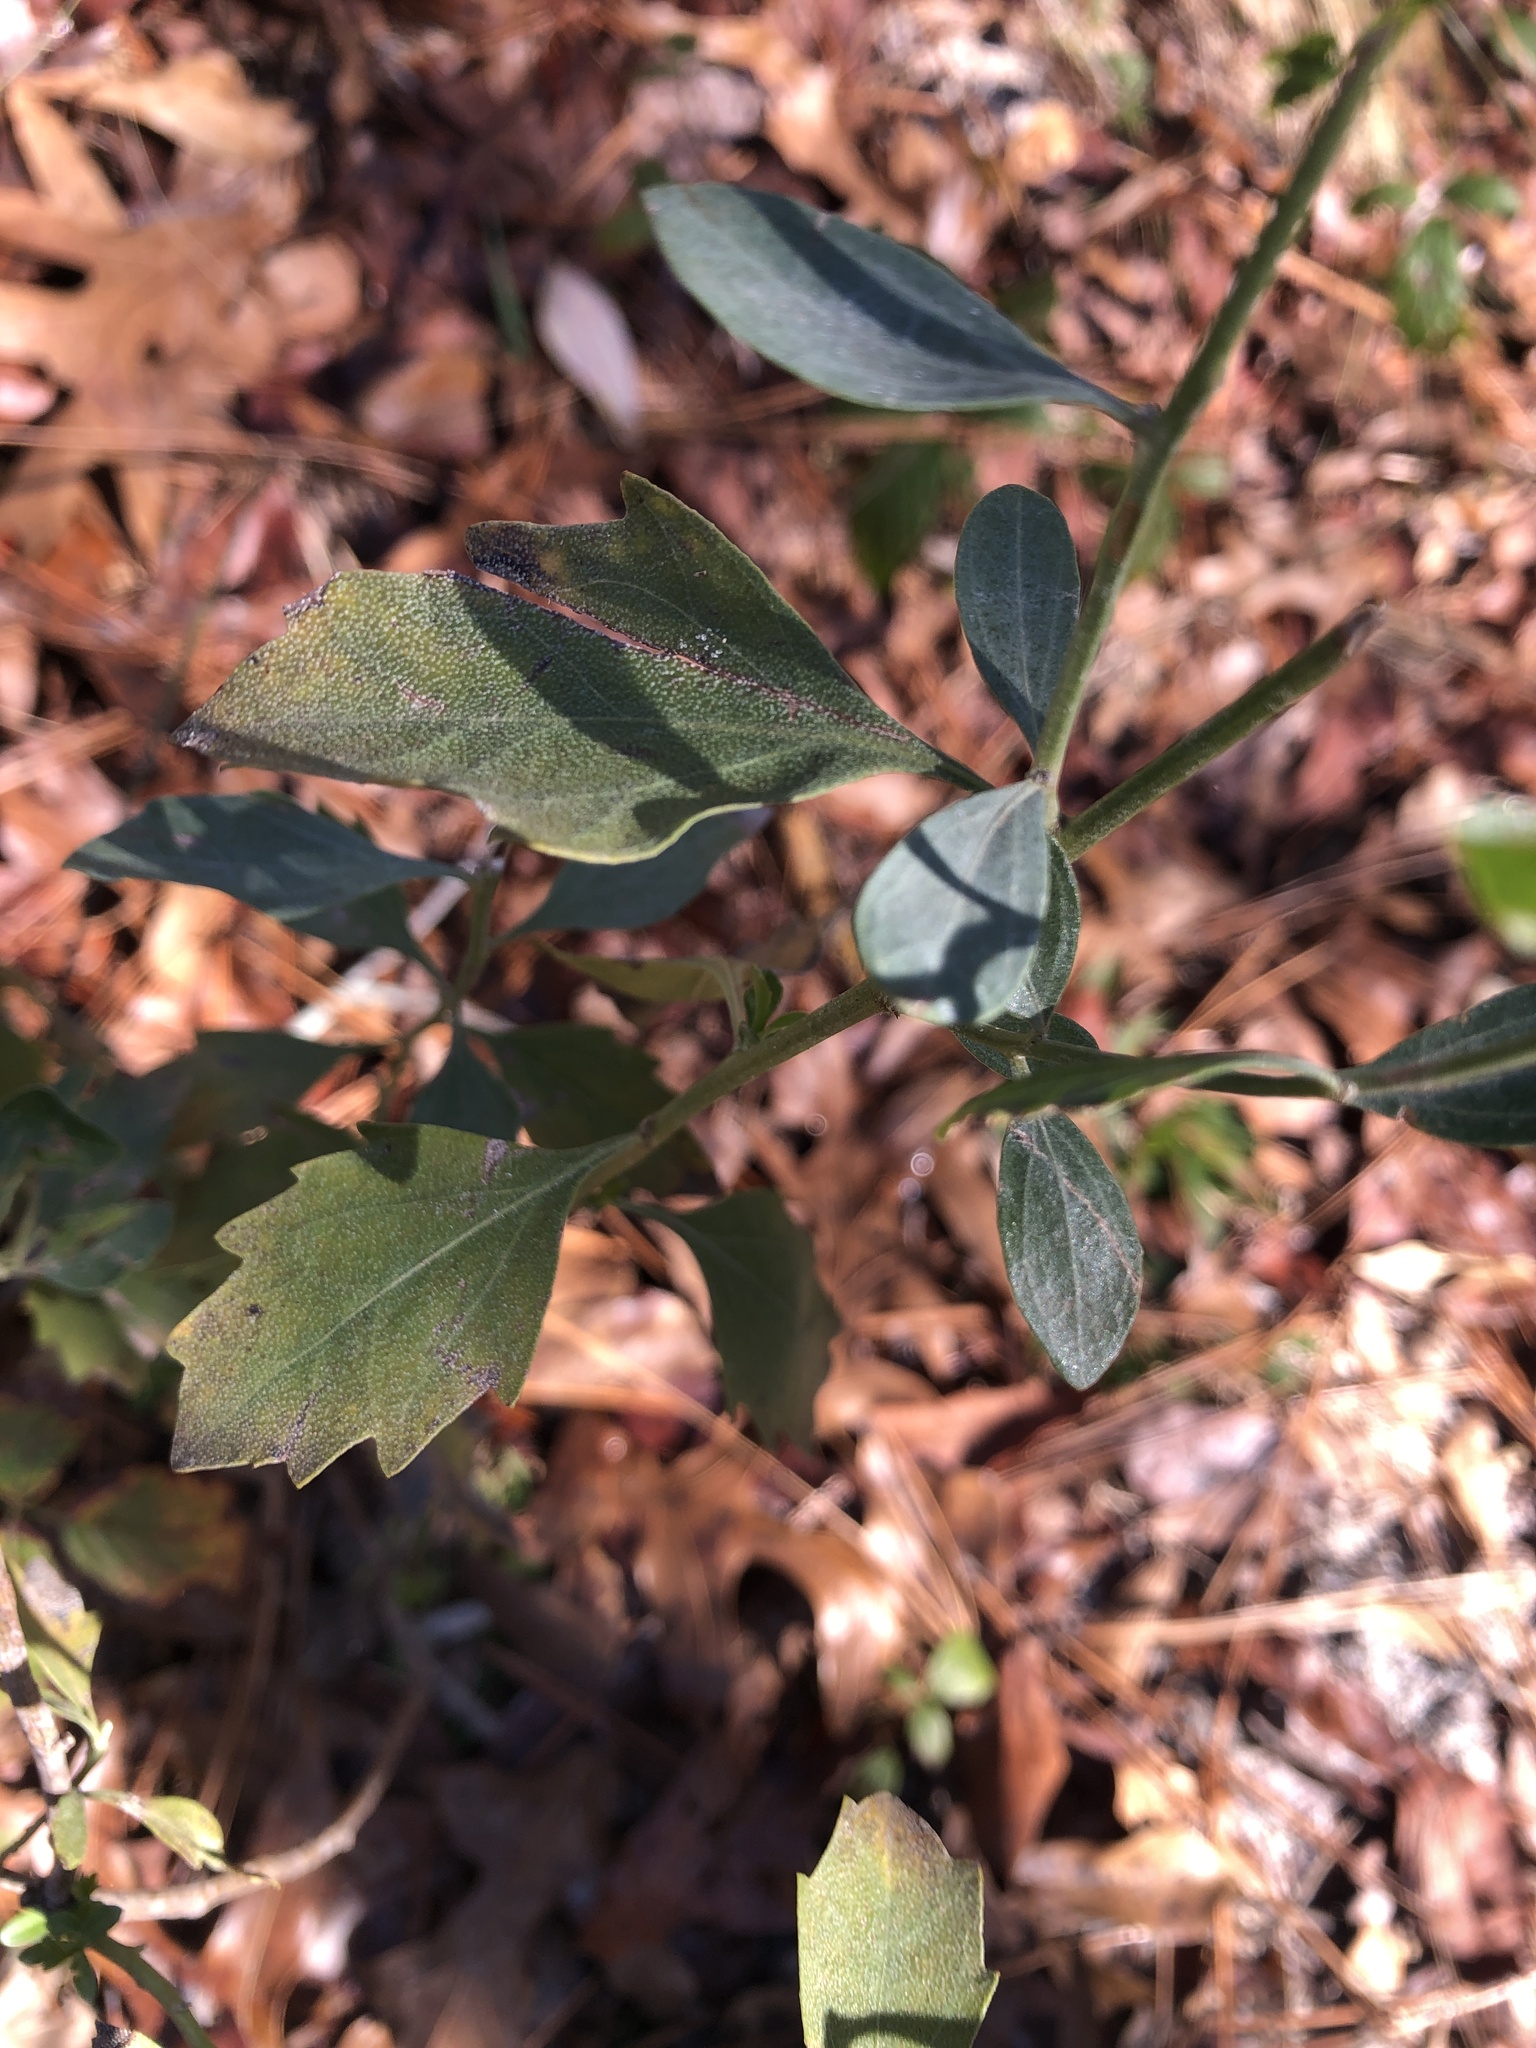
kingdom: Plantae
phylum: Tracheophyta
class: Magnoliopsida
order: Asterales
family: Asteraceae
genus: Baccharis
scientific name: Baccharis halimifolia
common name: Eastern baccharis
